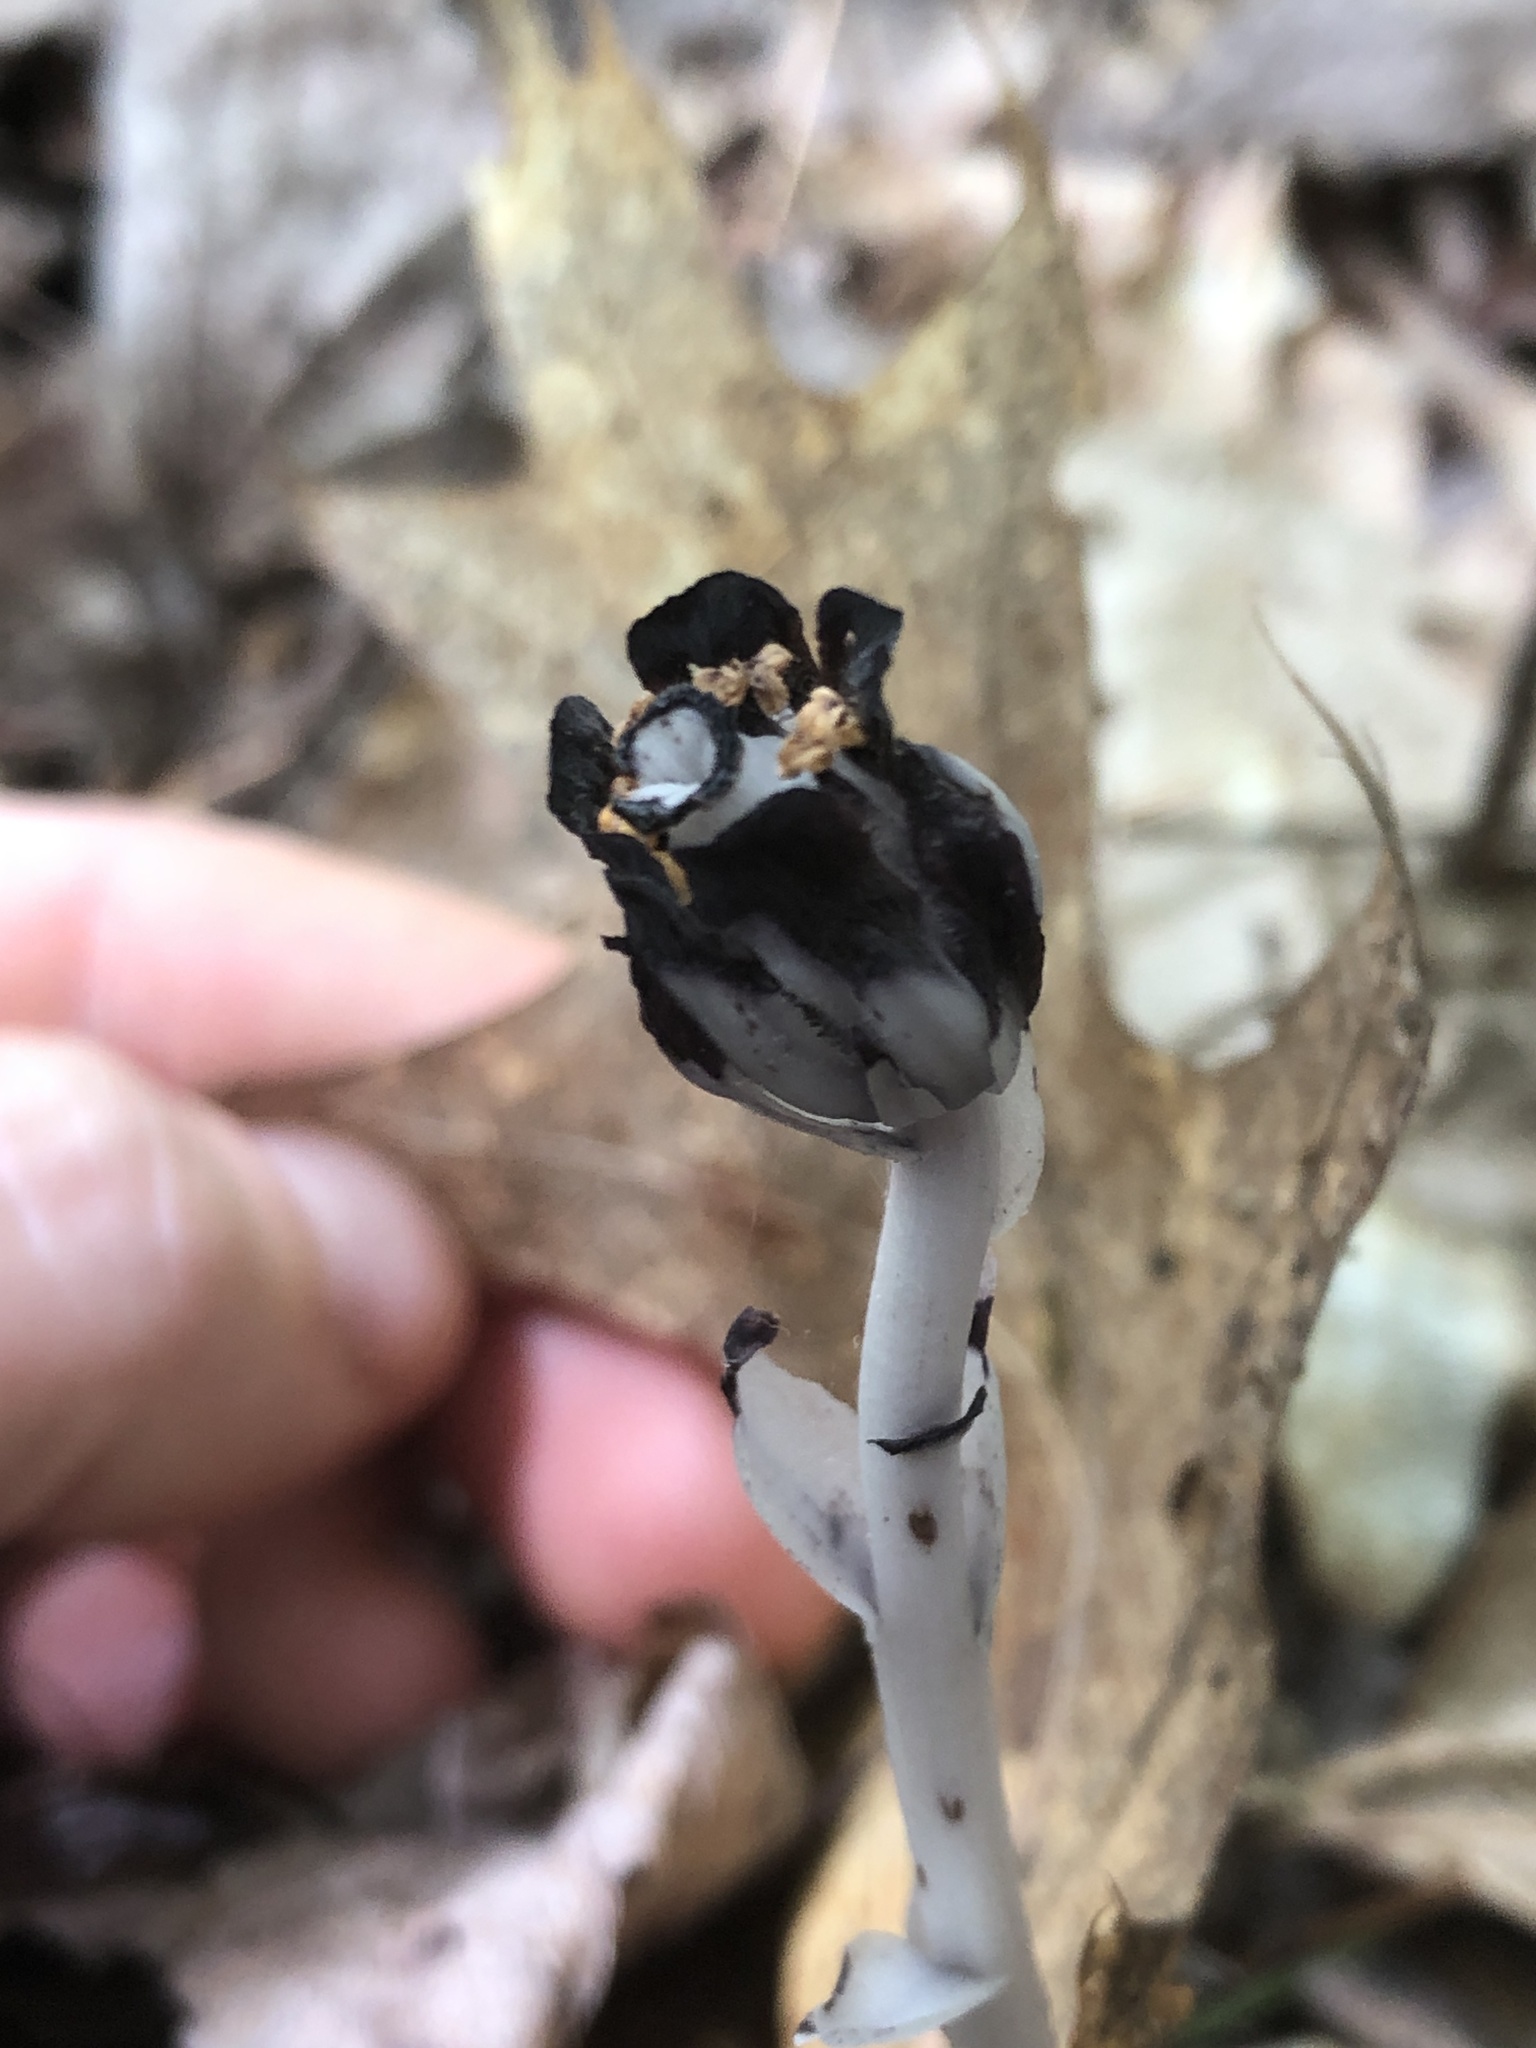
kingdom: Plantae
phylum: Tracheophyta
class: Magnoliopsida
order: Ericales
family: Ericaceae
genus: Monotropa
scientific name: Monotropa uniflora
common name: Convulsion root
